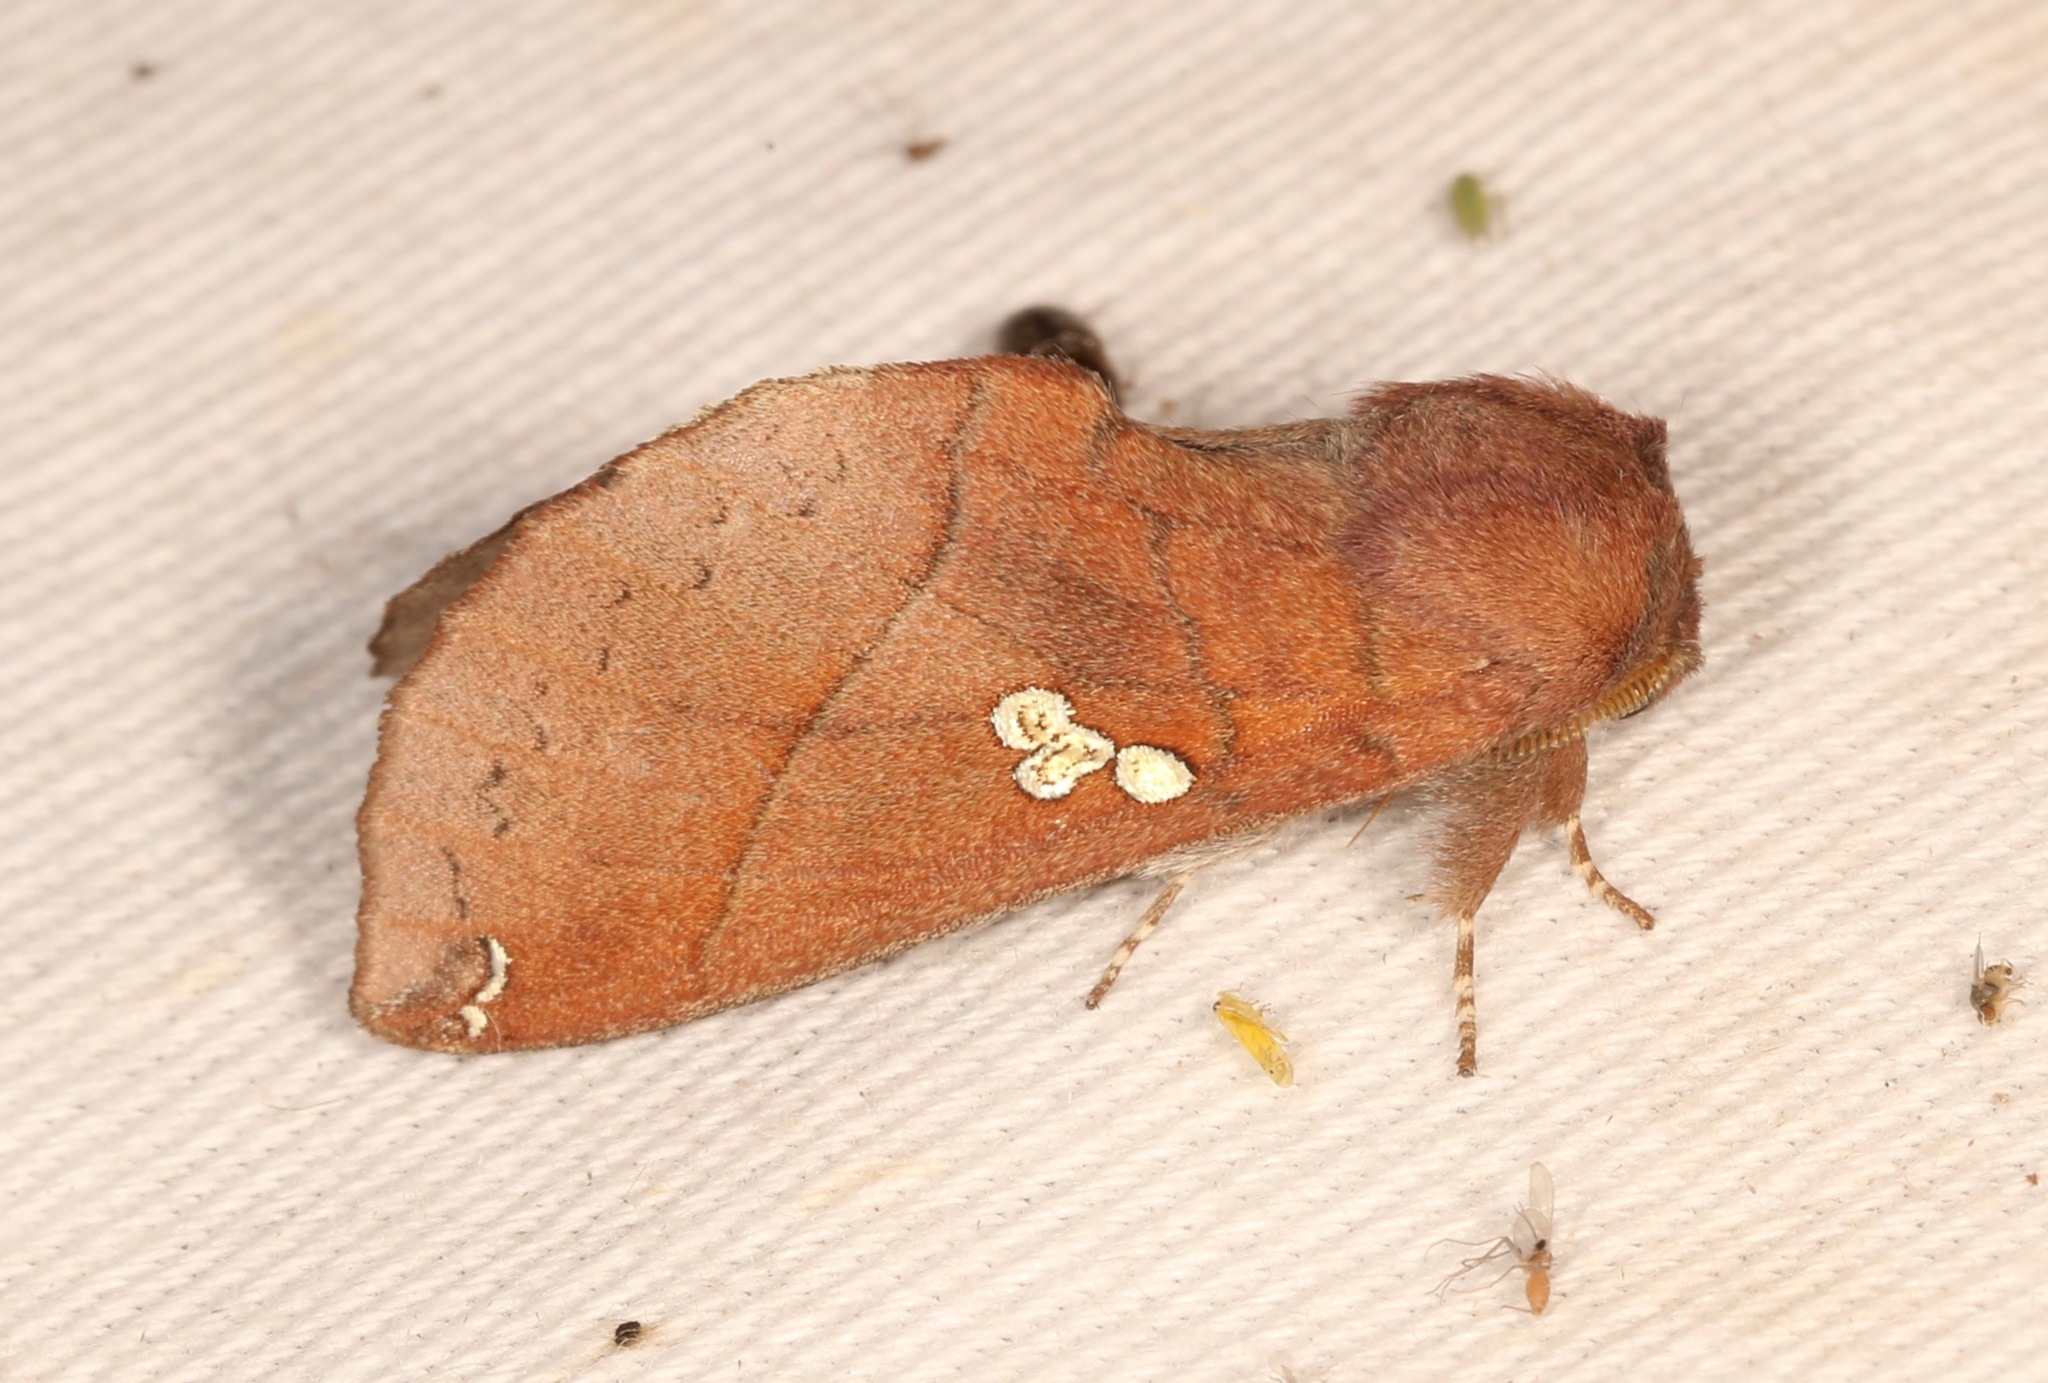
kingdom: Animalia
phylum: Arthropoda
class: Insecta
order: Lepidoptera
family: Notodontidae
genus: Pseudhapigia
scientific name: Pseudhapigia brunnea
